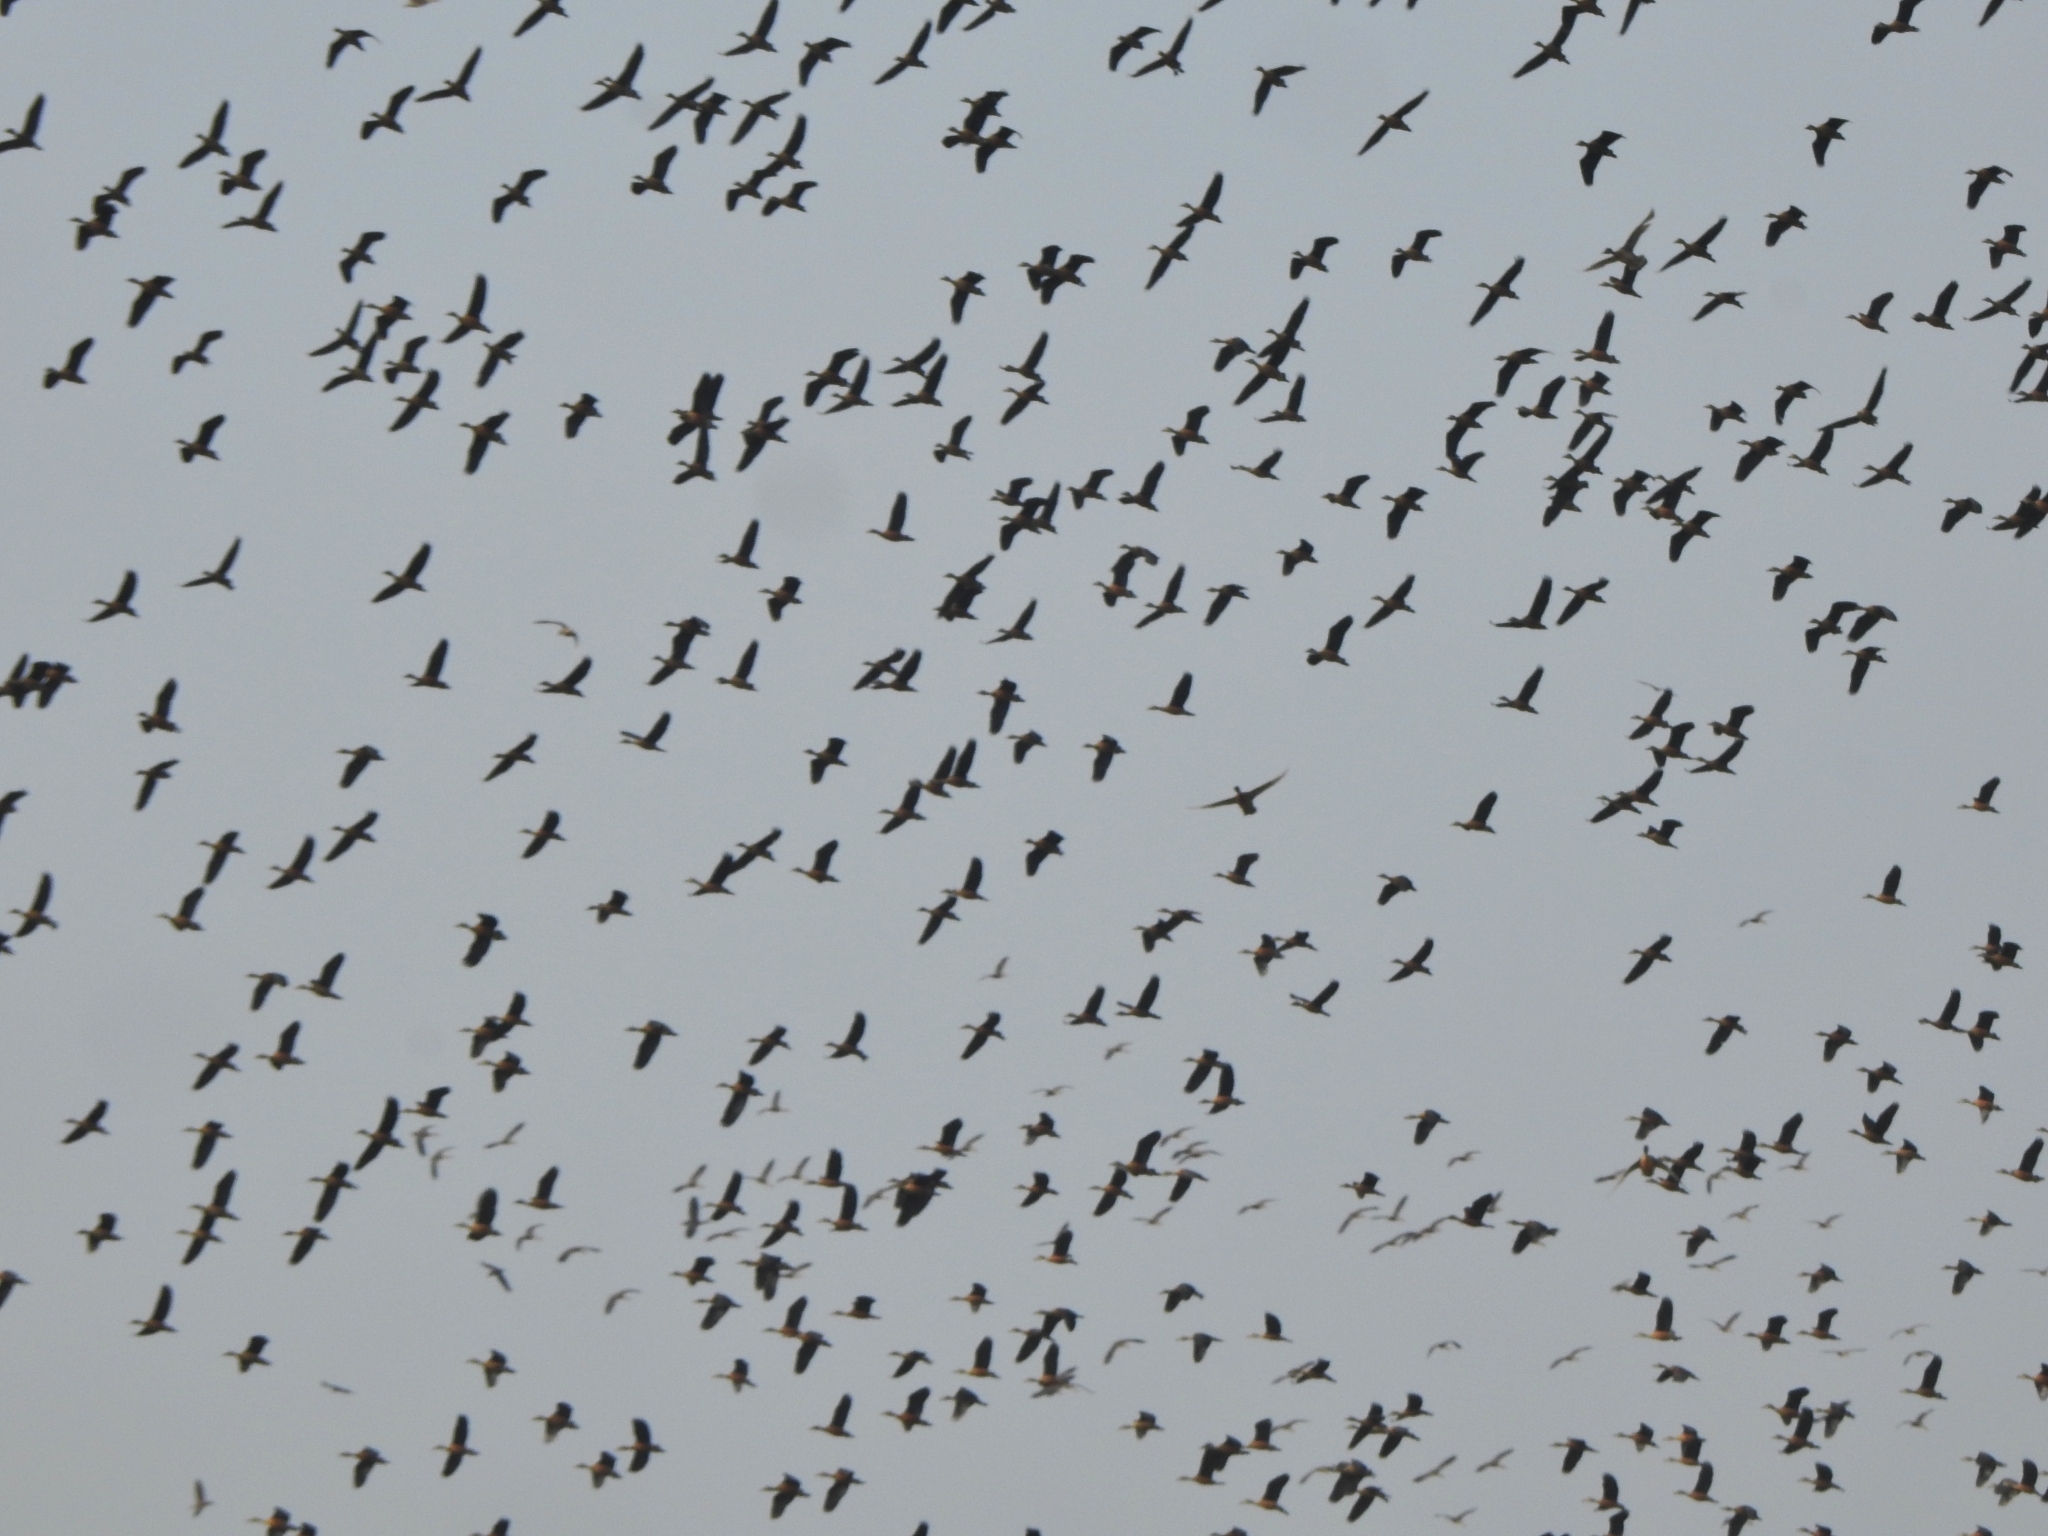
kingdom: Animalia
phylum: Chordata
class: Aves
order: Anseriformes
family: Anatidae
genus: Dendrocygna
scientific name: Dendrocygna javanica
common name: Lesser whistling-duck
